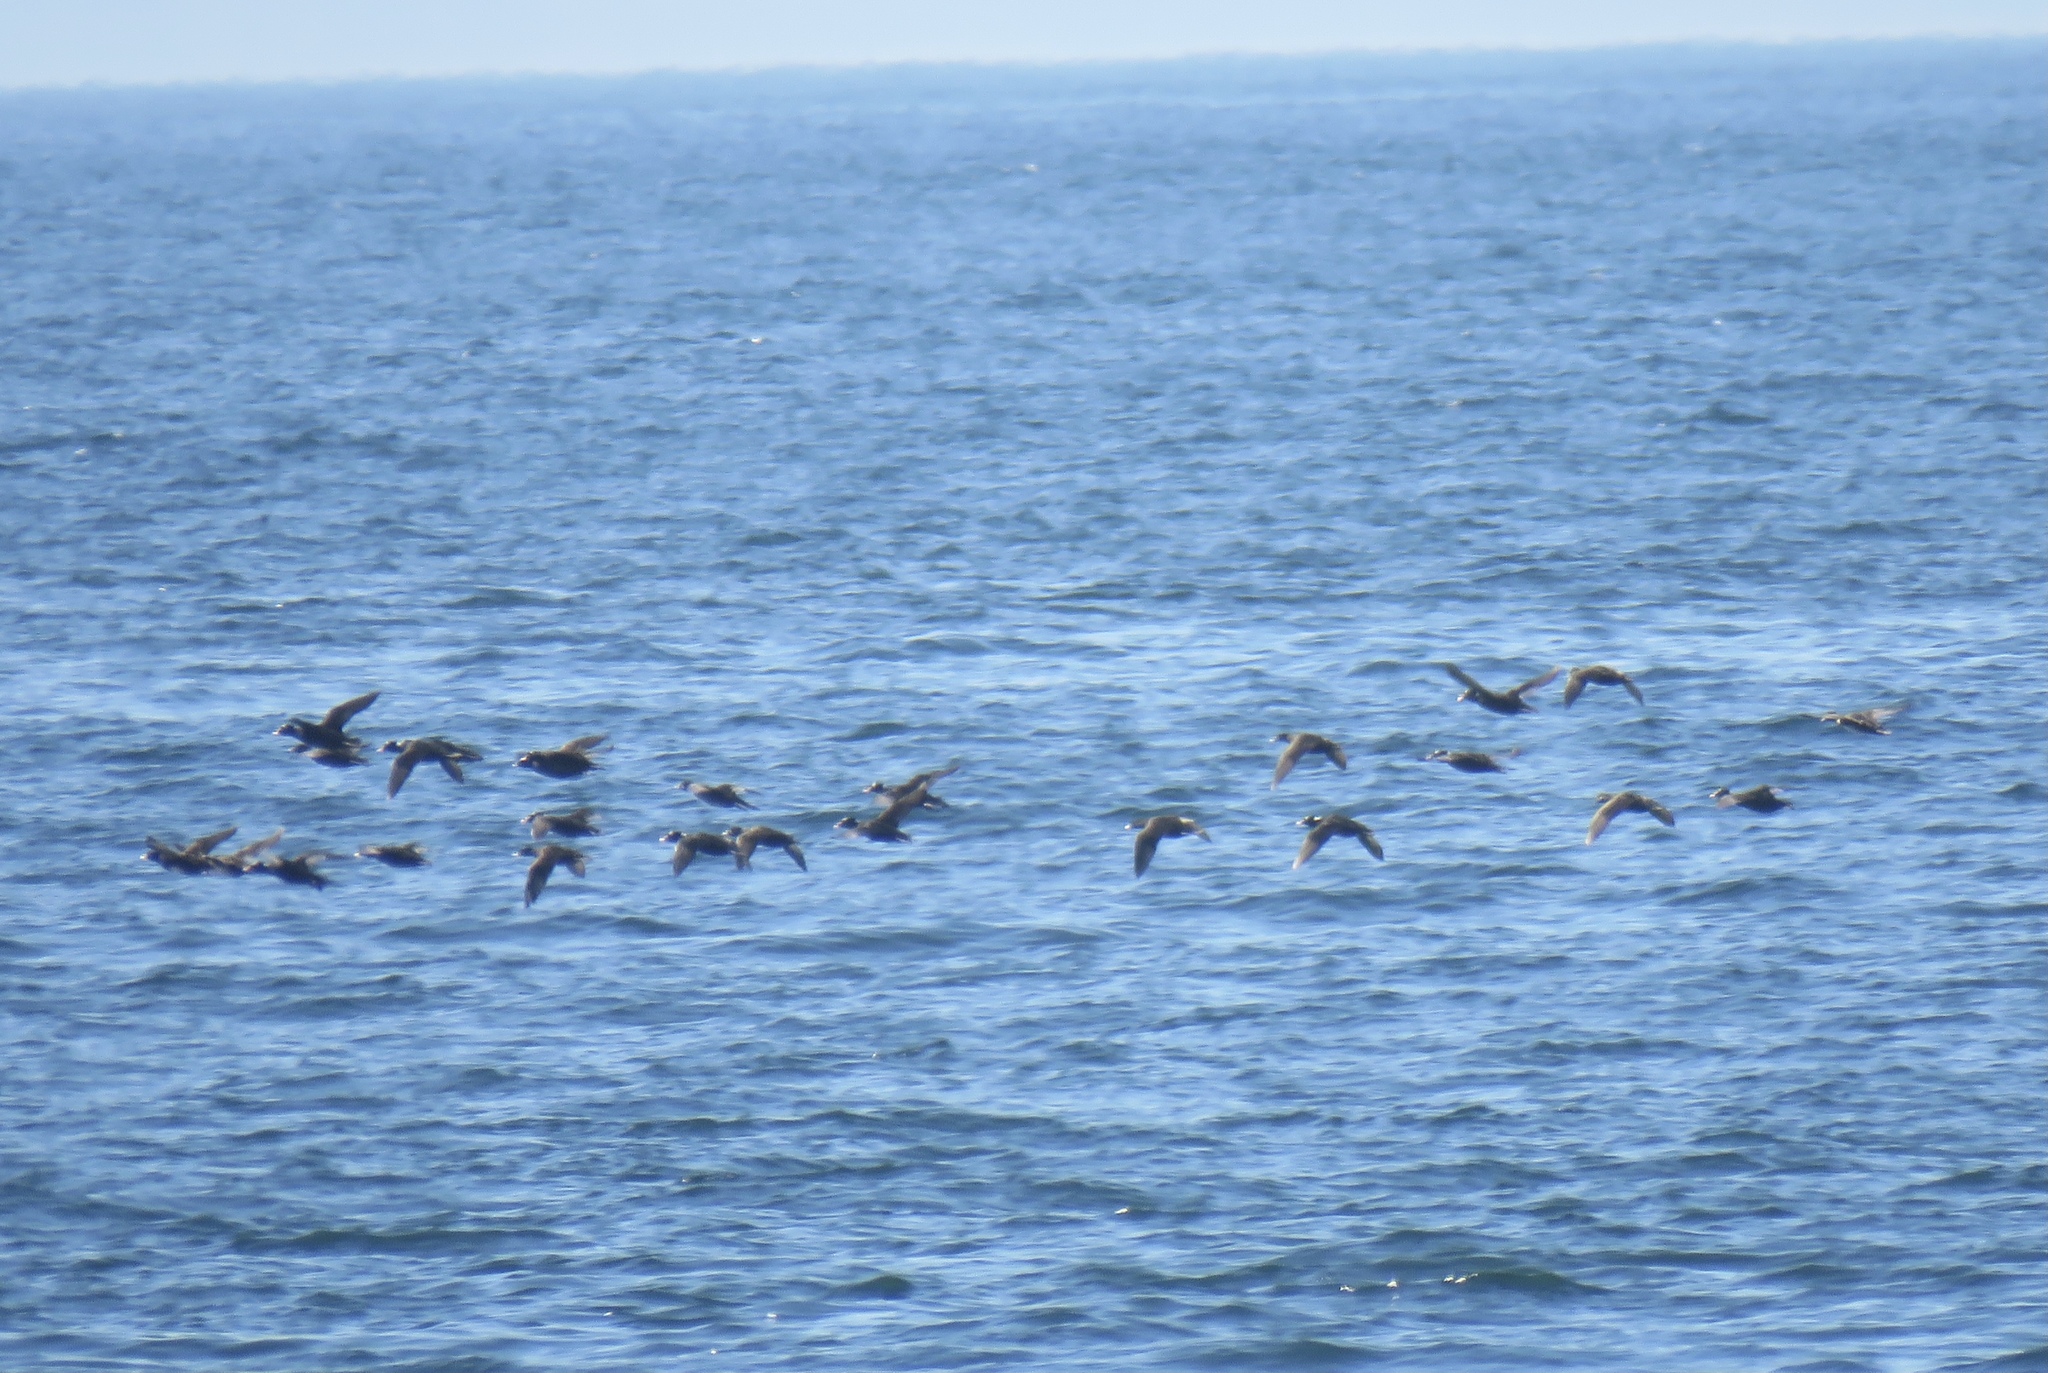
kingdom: Animalia
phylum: Chordata
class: Aves
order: Anseriformes
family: Anatidae
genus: Melanitta
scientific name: Melanitta perspicillata
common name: Surf scoter
